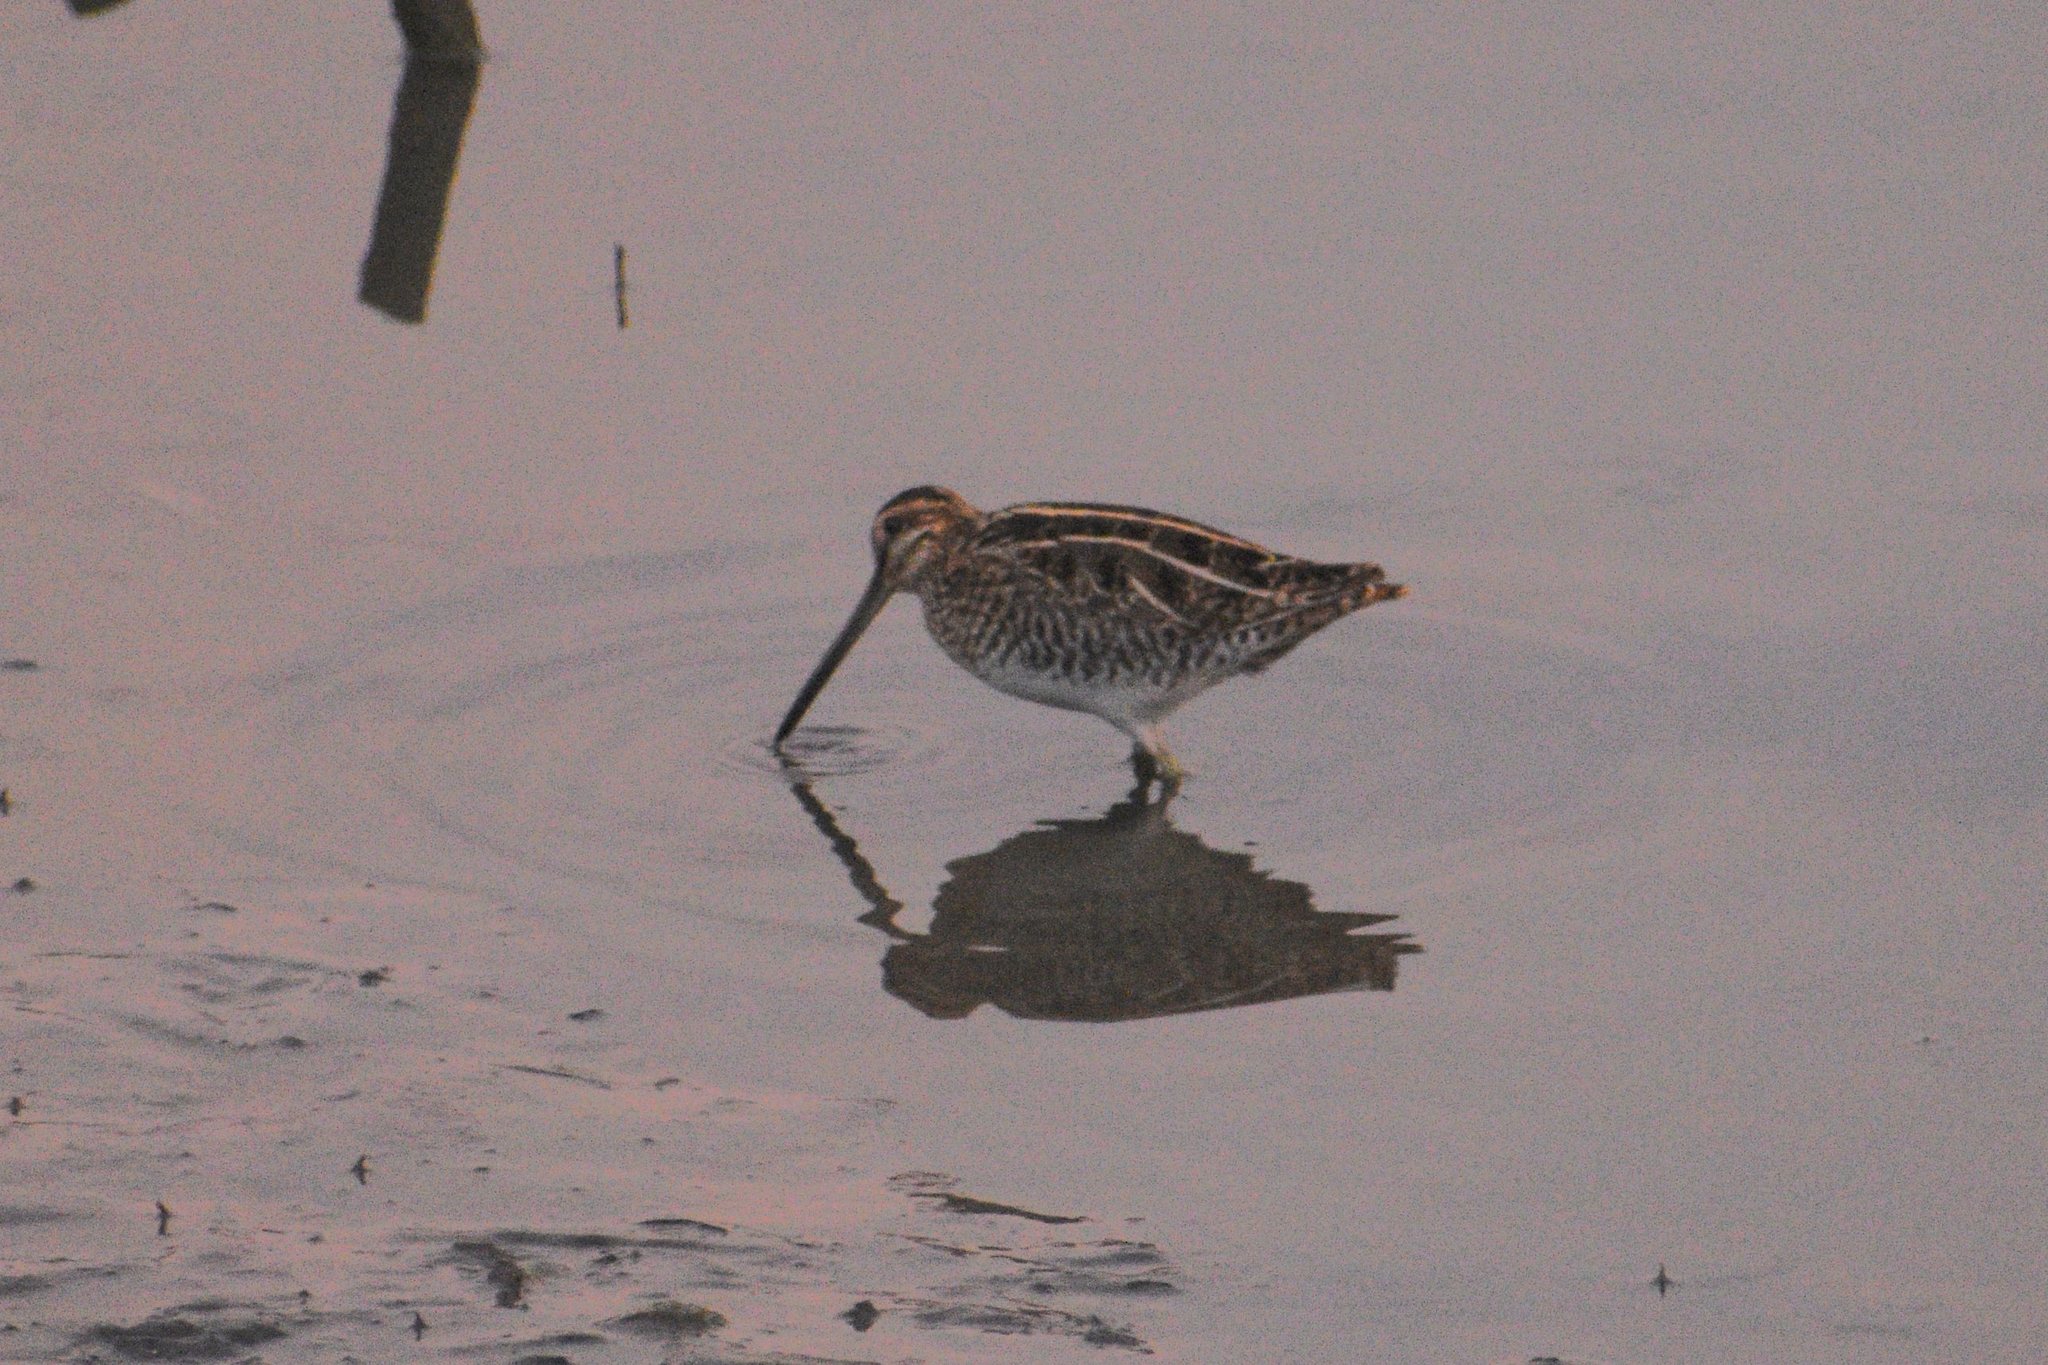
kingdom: Animalia
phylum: Chordata
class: Aves
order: Charadriiformes
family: Scolopacidae
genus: Gallinago
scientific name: Gallinago delicata
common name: Wilson's snipe
